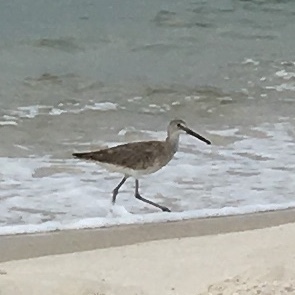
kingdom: Animalia
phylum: Chordata
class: Aves
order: Charadriiformes
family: Scolopacidae
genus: Tringa
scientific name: Tringa semipalmata
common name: Willet
